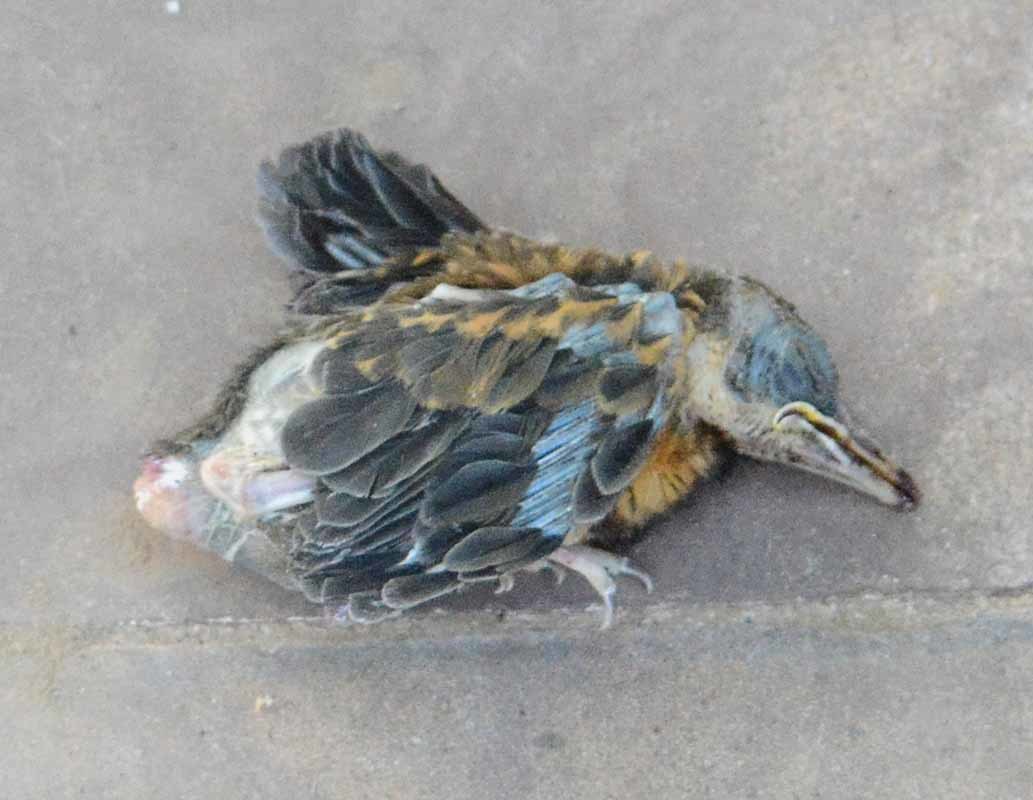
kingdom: Animalia
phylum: Chordata
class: Aves
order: Passeriformes
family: Turdidae
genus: Turdus
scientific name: Turdus rufopalliatus
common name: Rufous-backed robin
